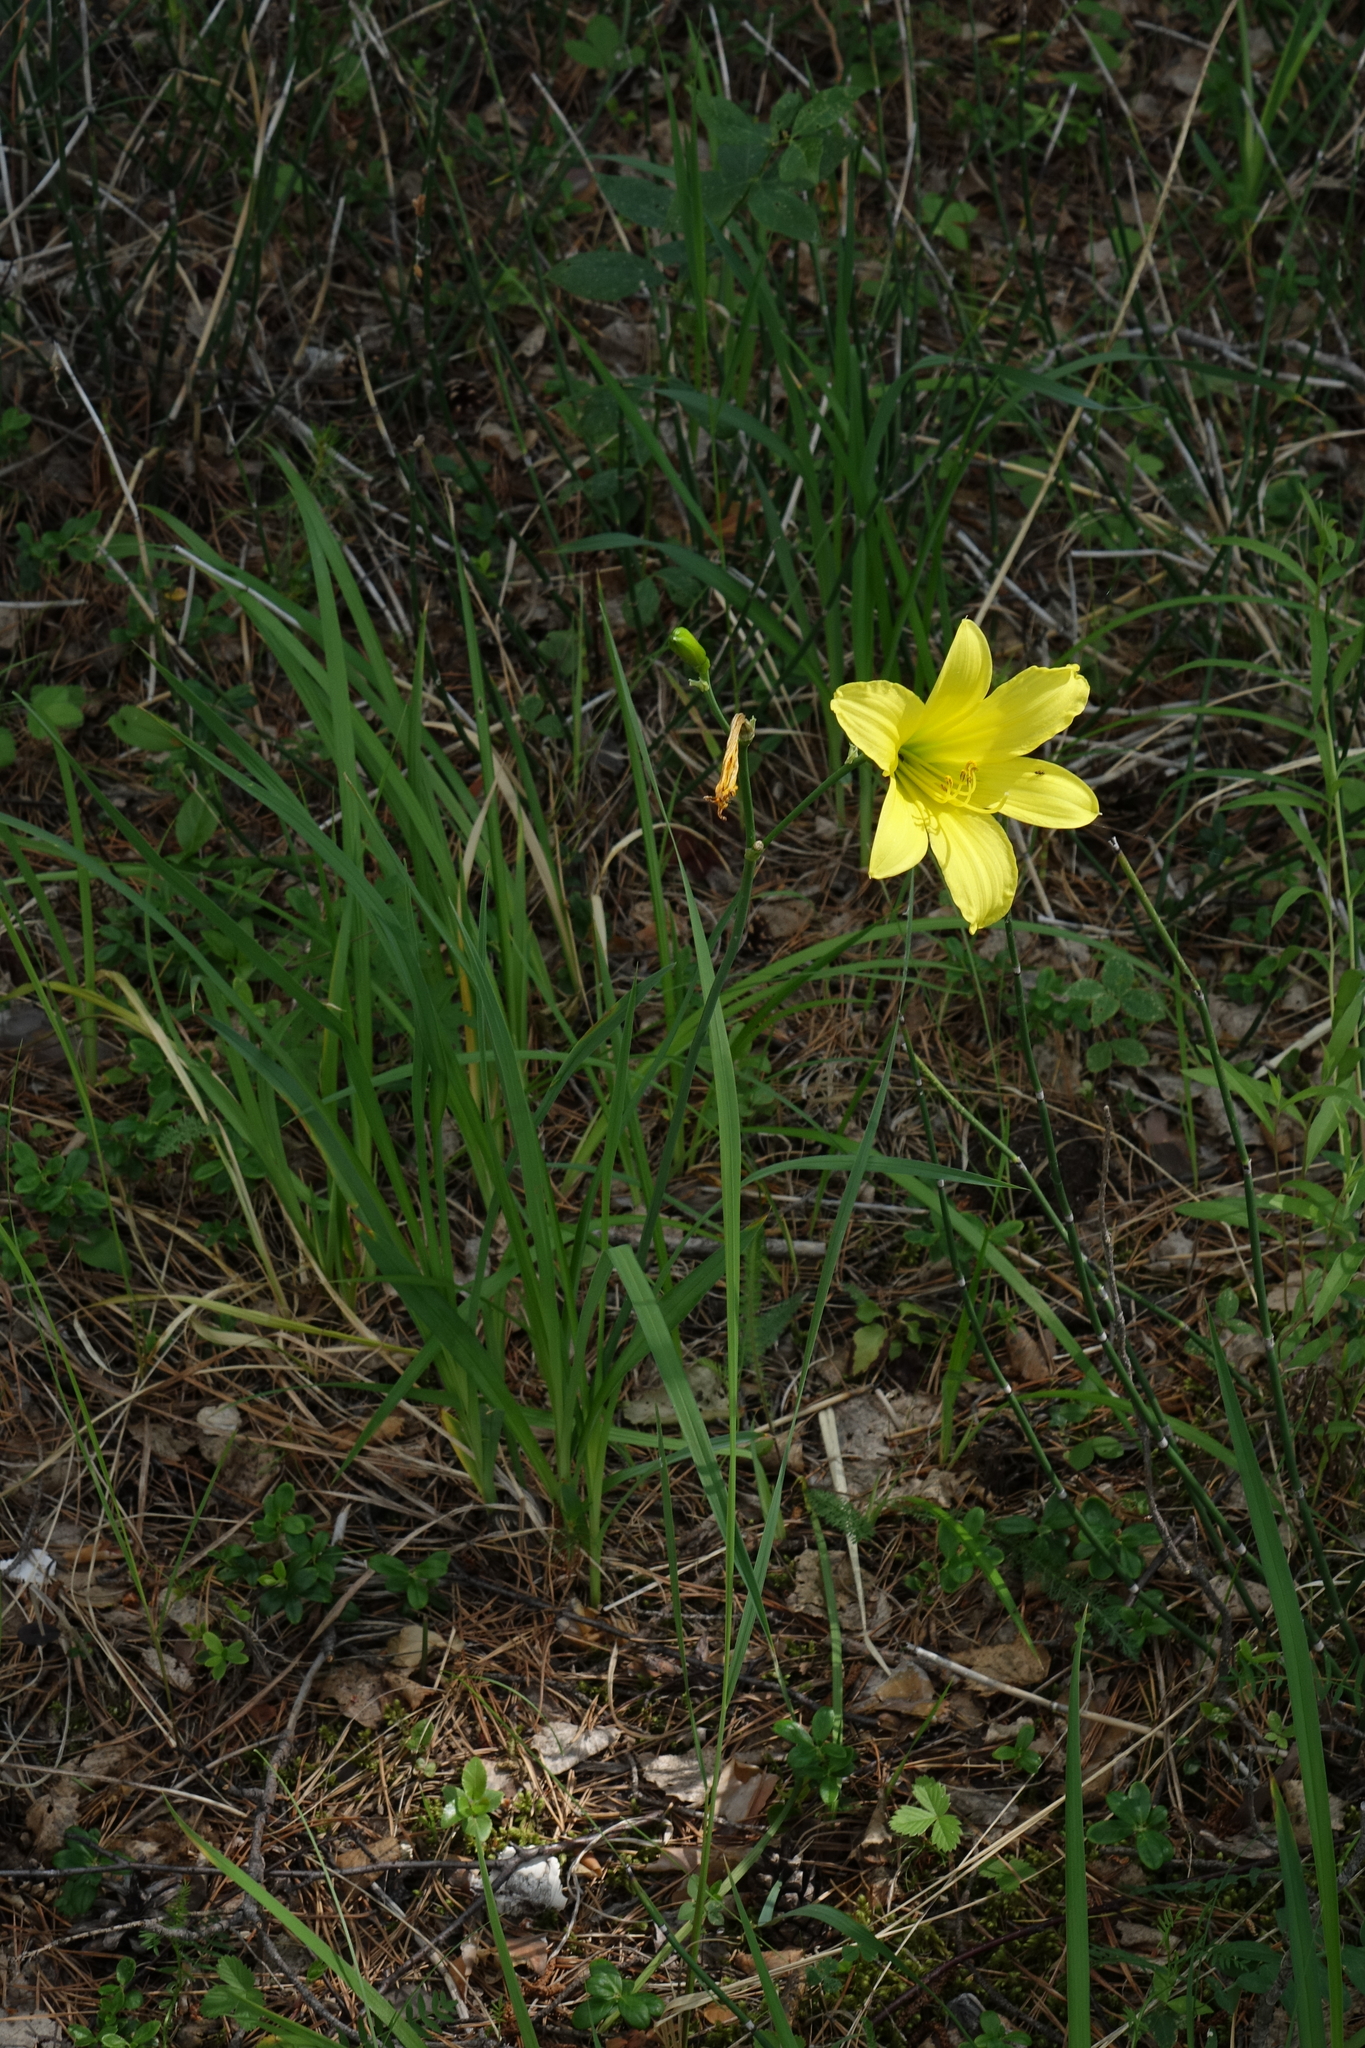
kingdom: Plantae
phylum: Tracheophyta
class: Liliopsida
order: Asparagales
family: Asphodelaceae
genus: Hemerocallis
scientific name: Hemerocallis minor
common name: Small daylily
